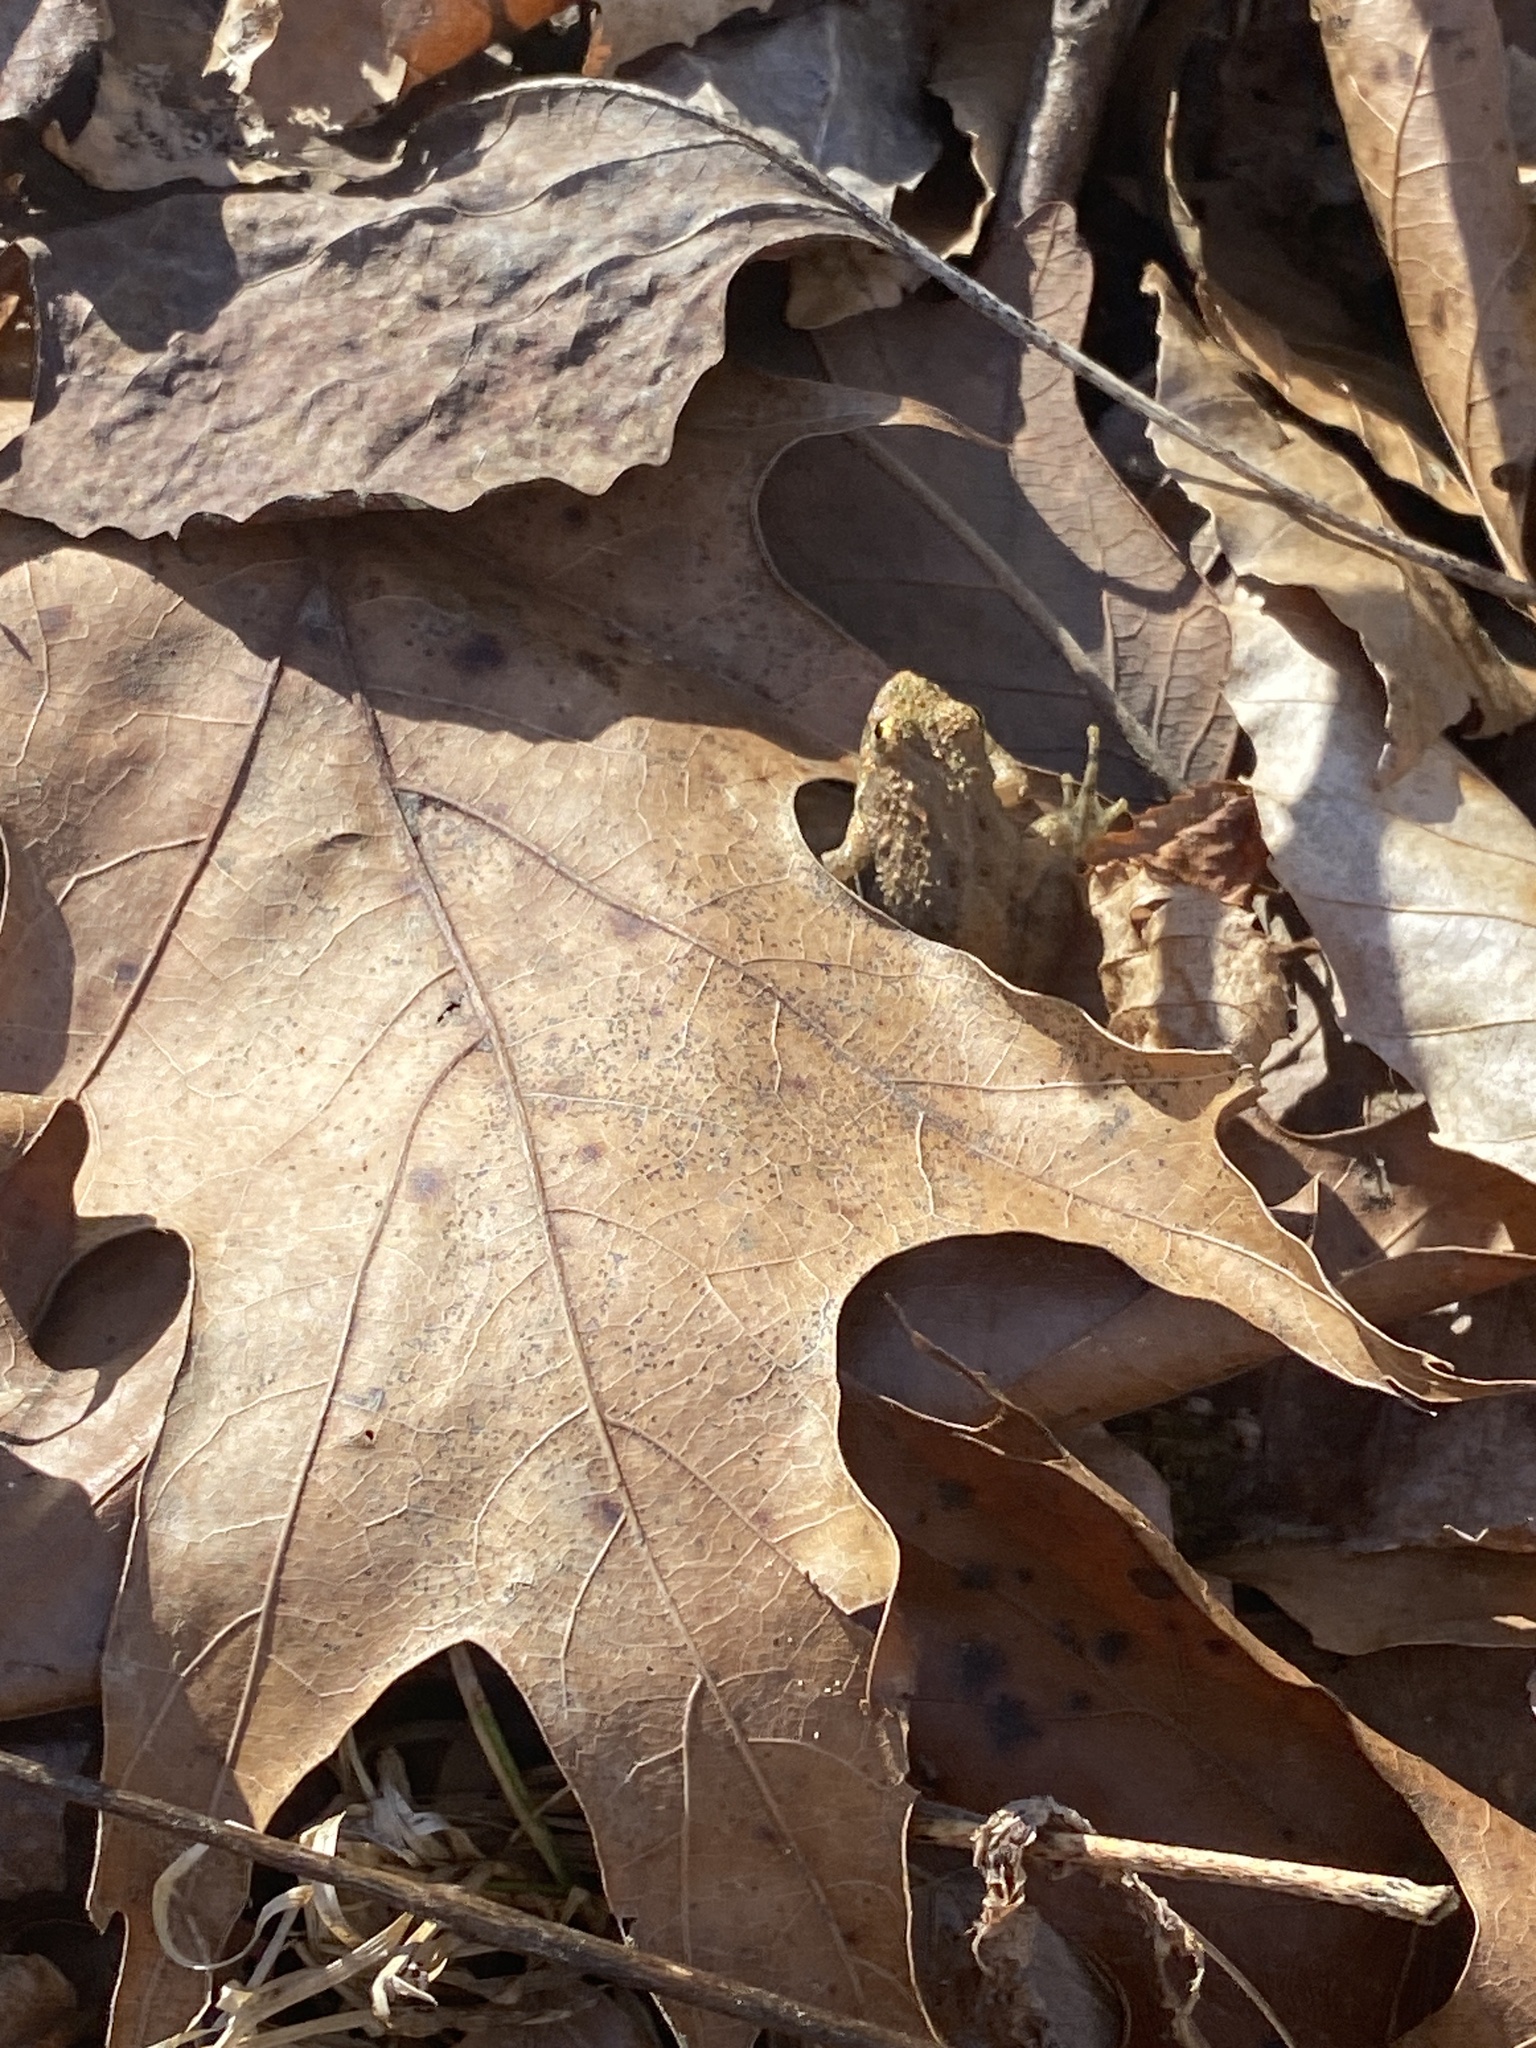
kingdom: Animalia
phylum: Chordata
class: Amphibia
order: Anura
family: Hylidae
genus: Acris
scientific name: Acris crepitans
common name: Northern cricket frog
